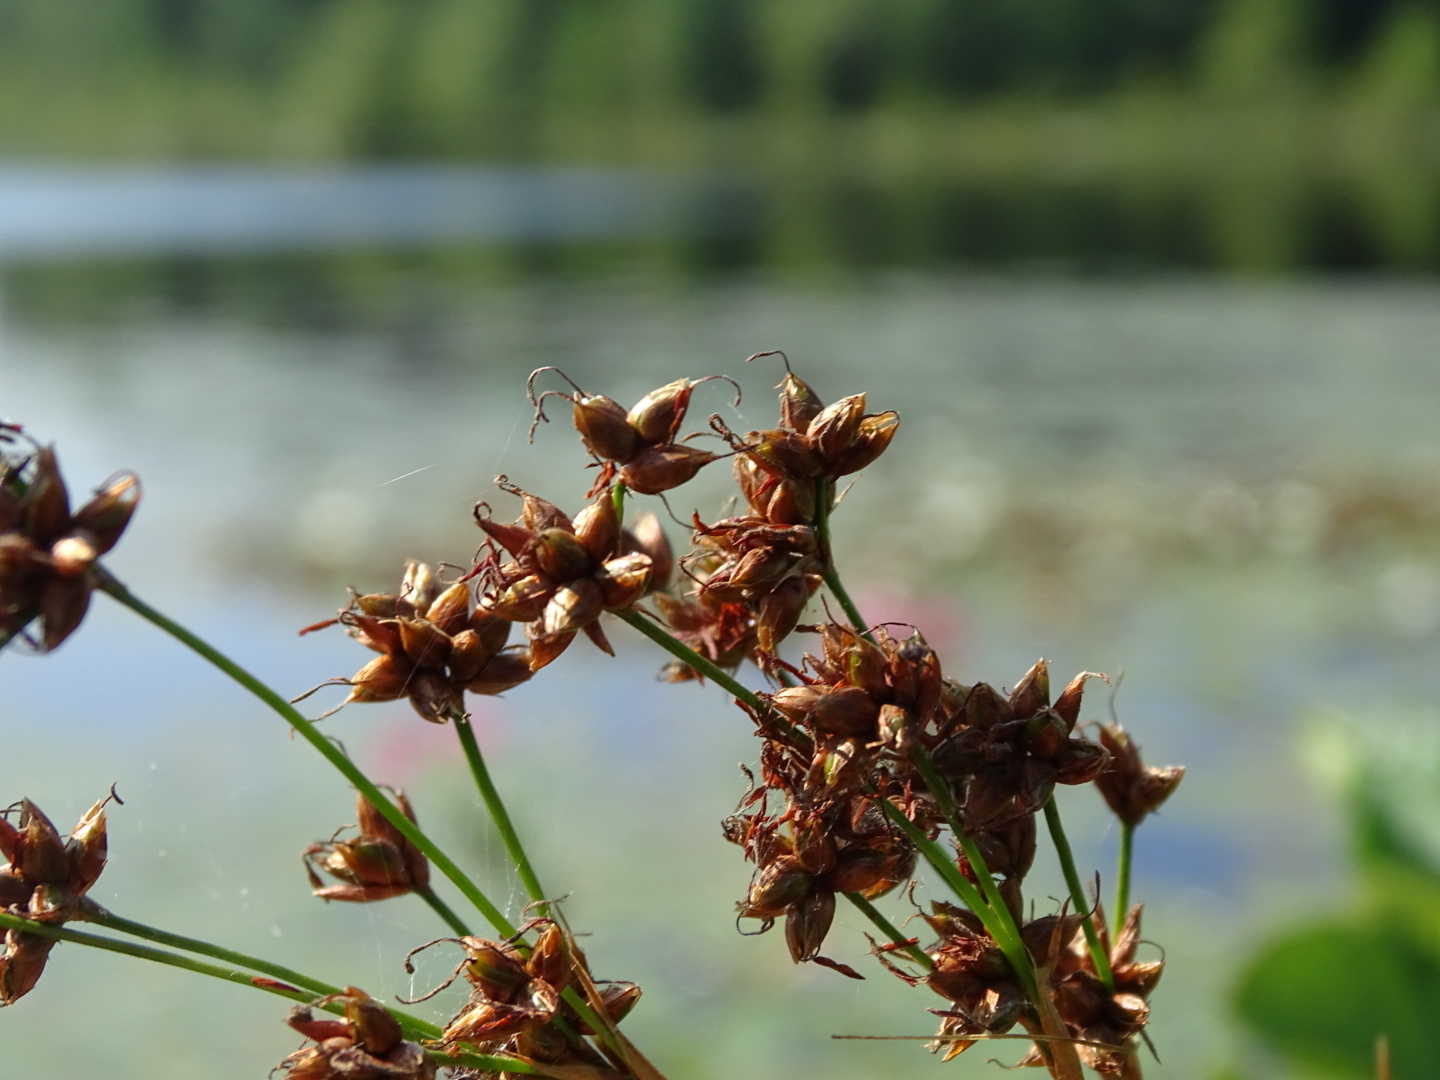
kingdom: Plantae
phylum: Tracheophyta
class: Liliopsida
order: Poales
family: Cyperaceae
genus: Cladium
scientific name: Cladium mariscoides
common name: Smooth sawgrass
